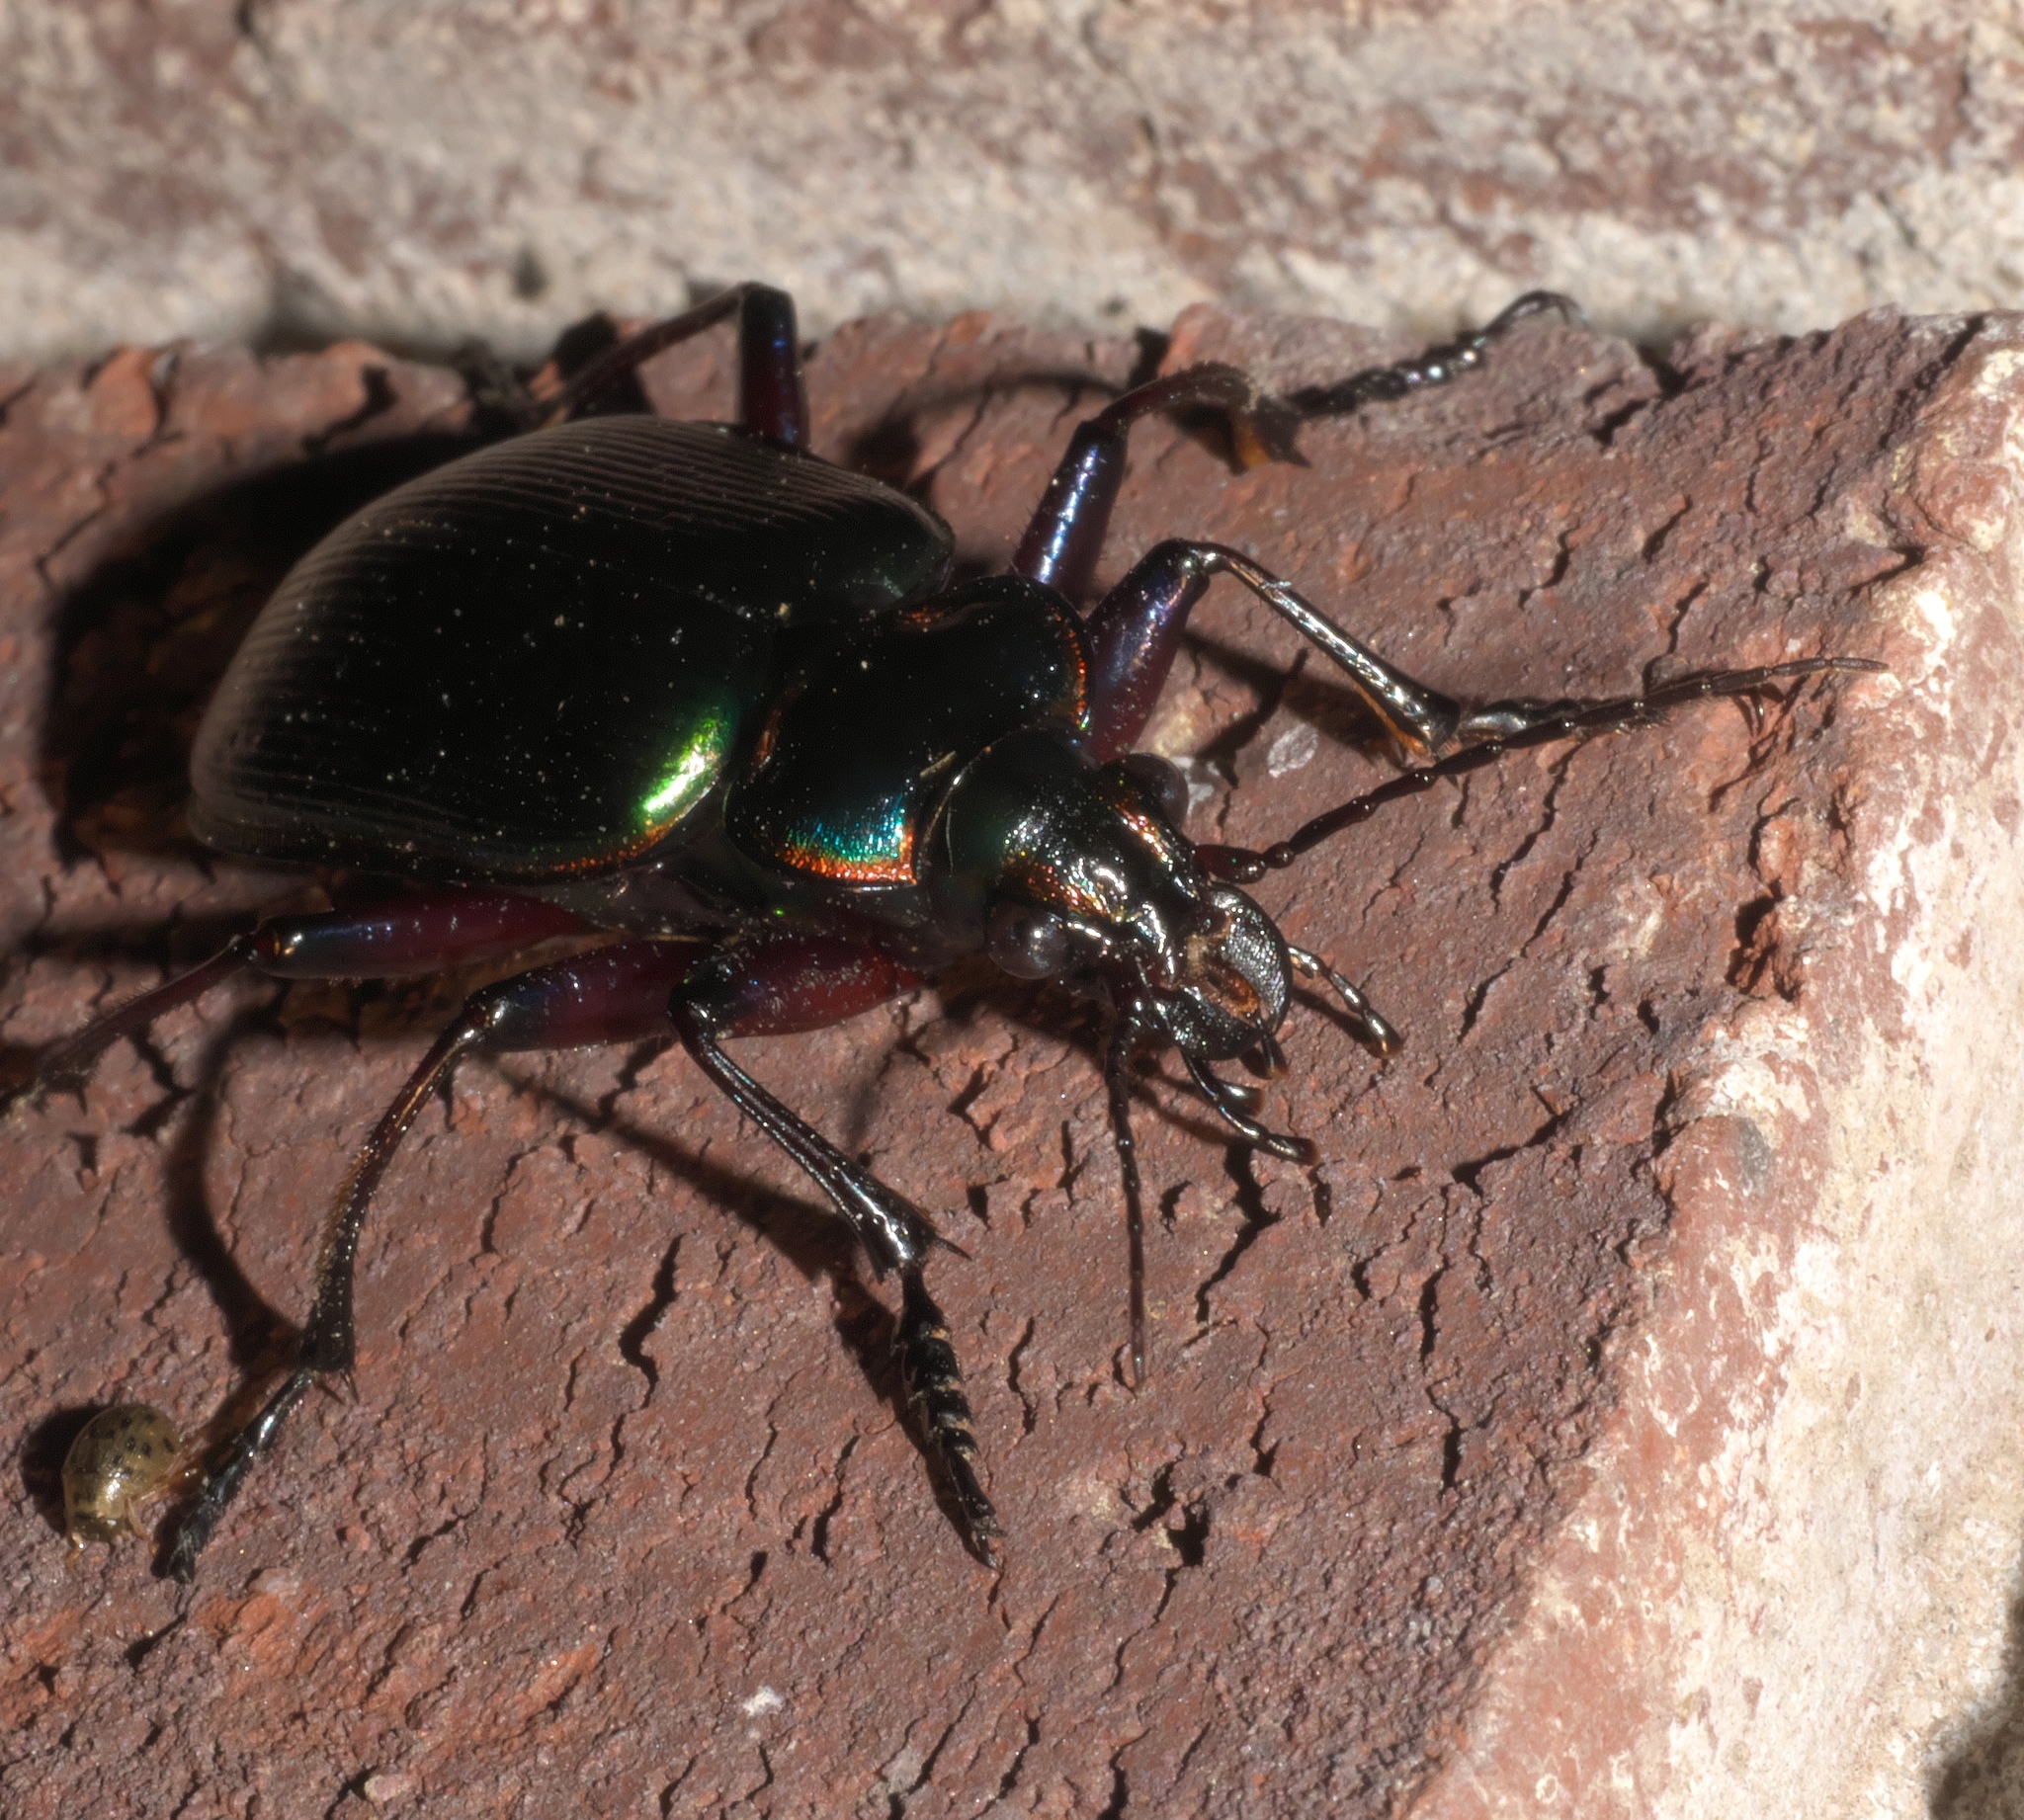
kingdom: Animalia
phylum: Arthropoda
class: Insecta
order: Coleoptera
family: Carabidae
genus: Calosoma
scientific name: Calosoma scrutator
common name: Fiery searcher beetle
